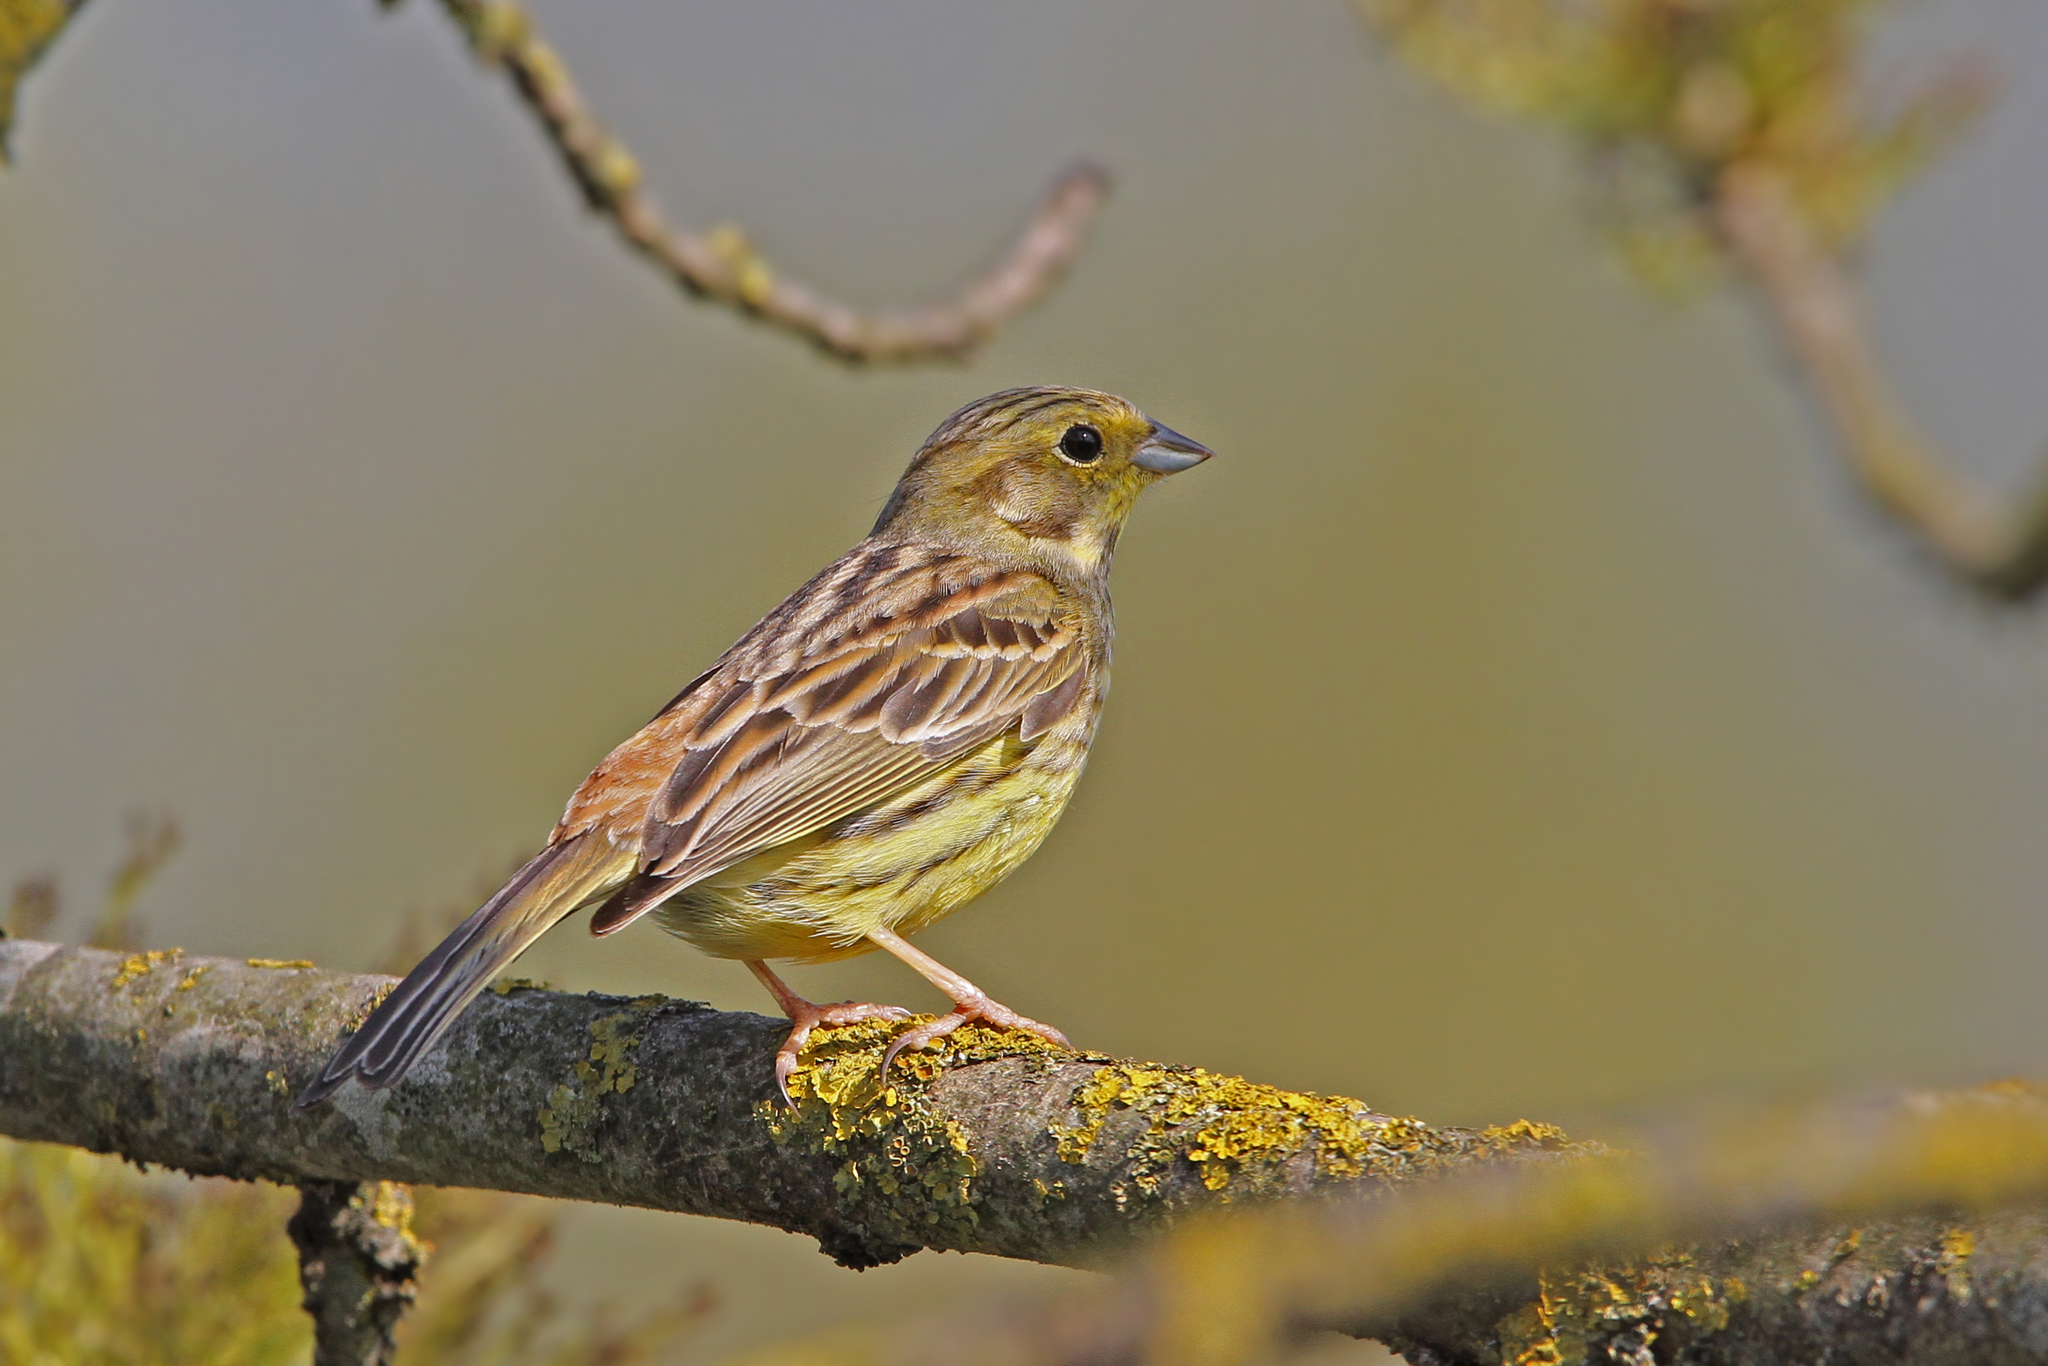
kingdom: Animalia
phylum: Chordata
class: Aves
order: Passeriformes
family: Emberizidae
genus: Emberiza
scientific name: Emberiza citrinella
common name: Yellowhammer
